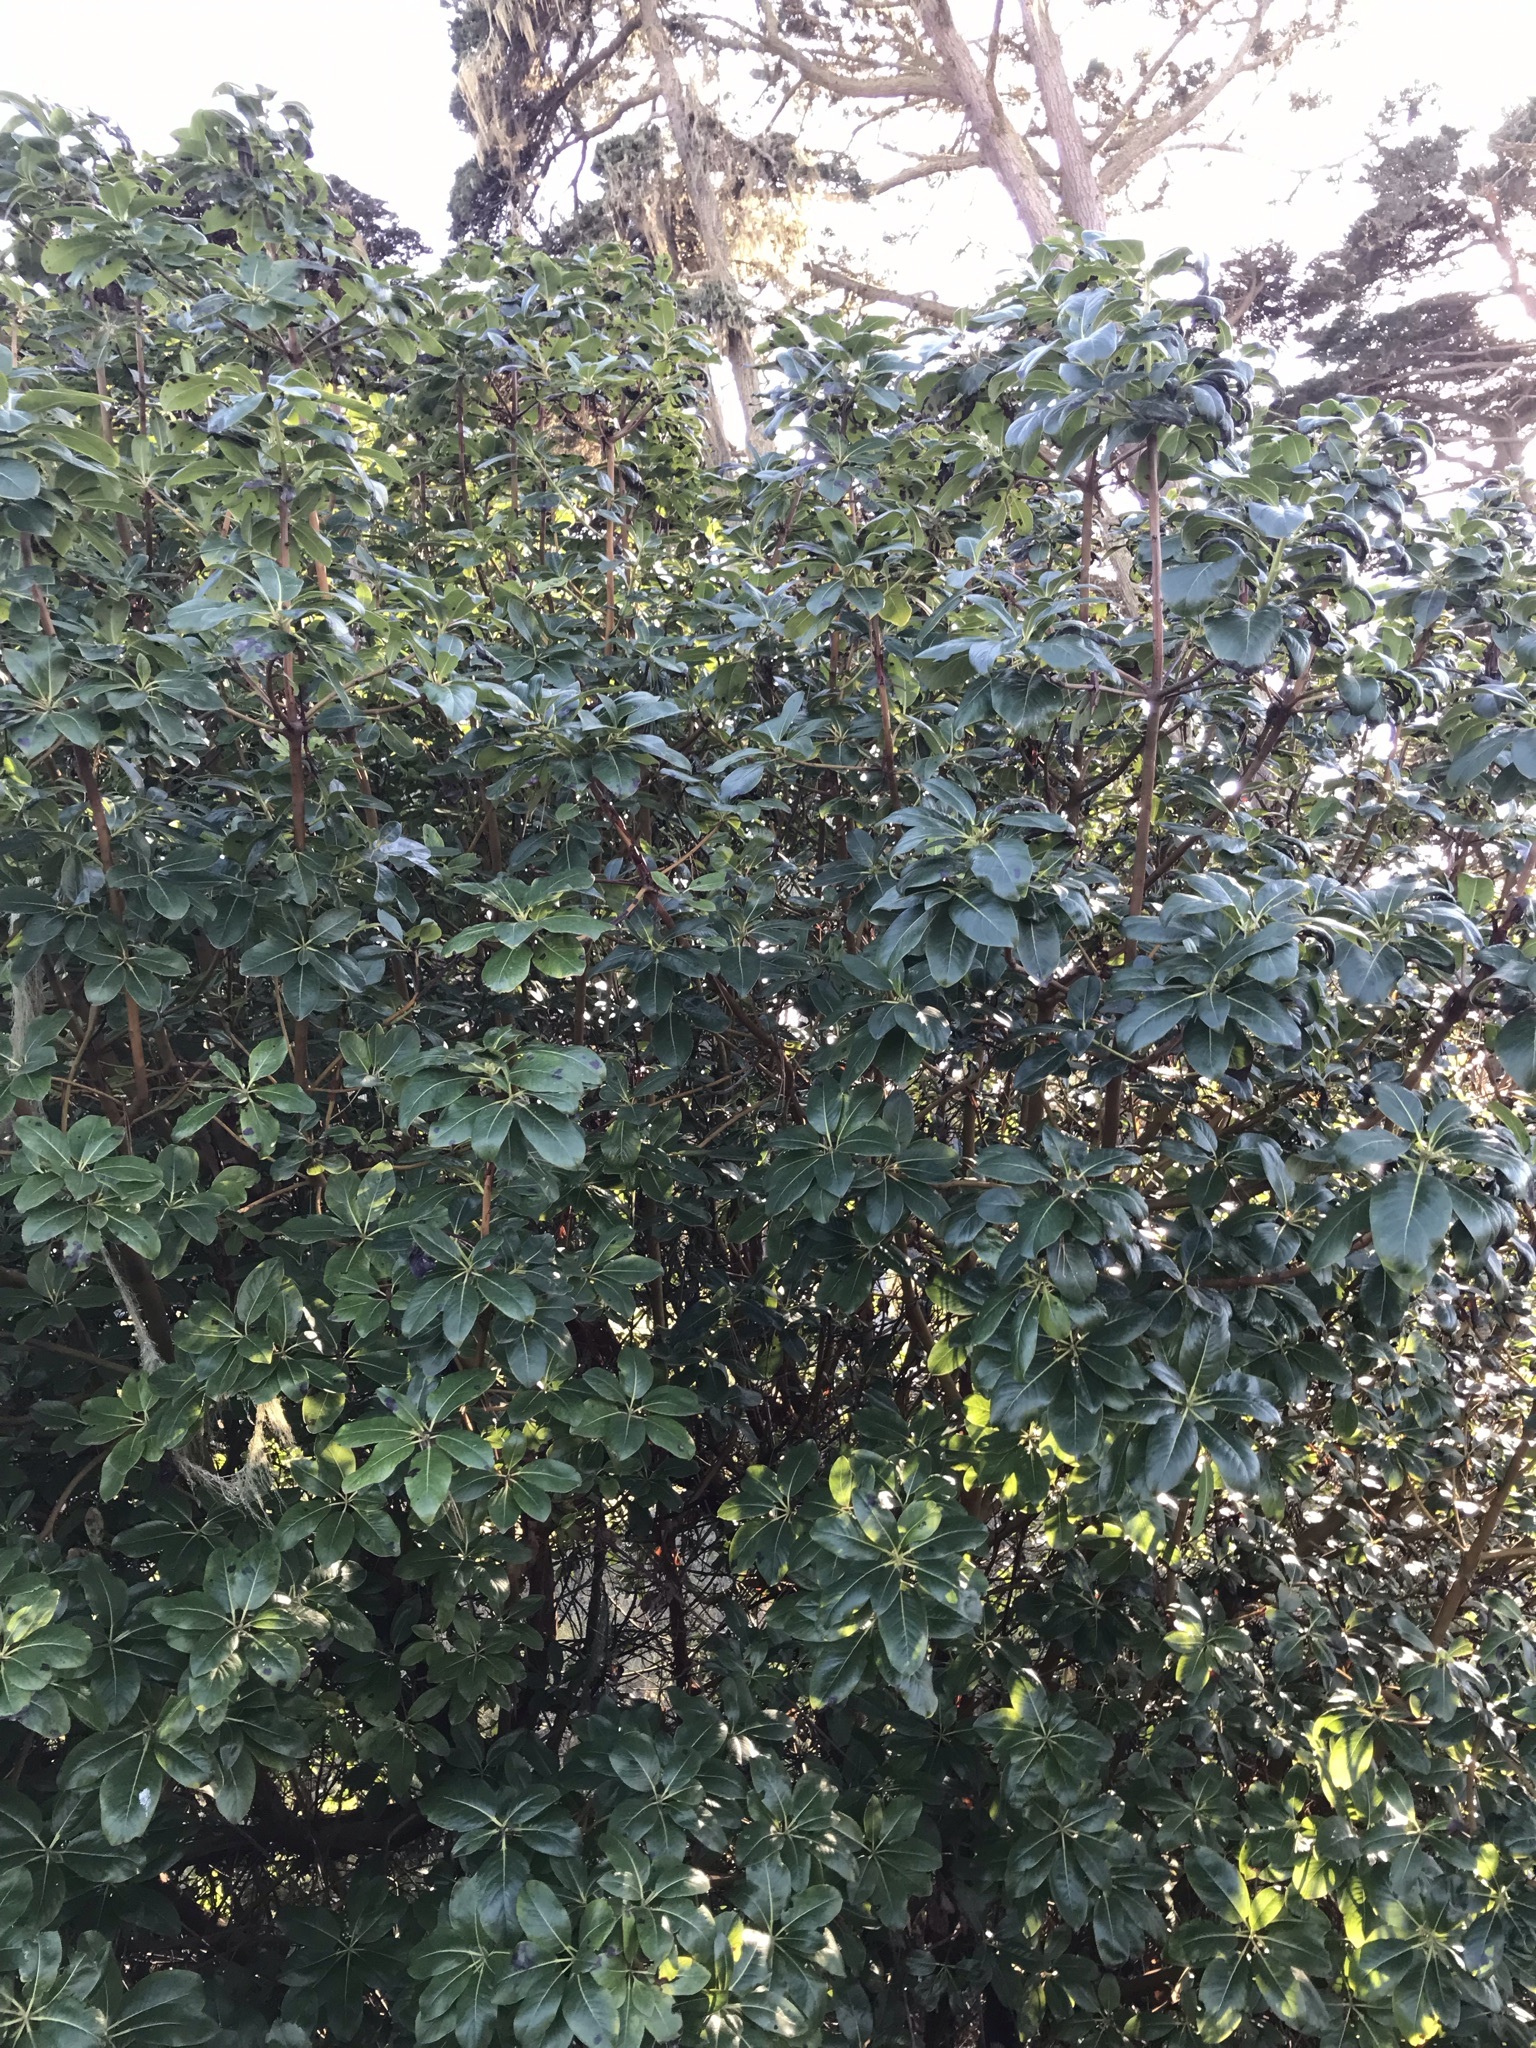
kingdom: Plantae
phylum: Tracheophyta
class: Magnoliopsida
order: Ericales
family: Ericaceae
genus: Arbutus
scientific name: Arbutus menziesii
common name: Pacific madrone
